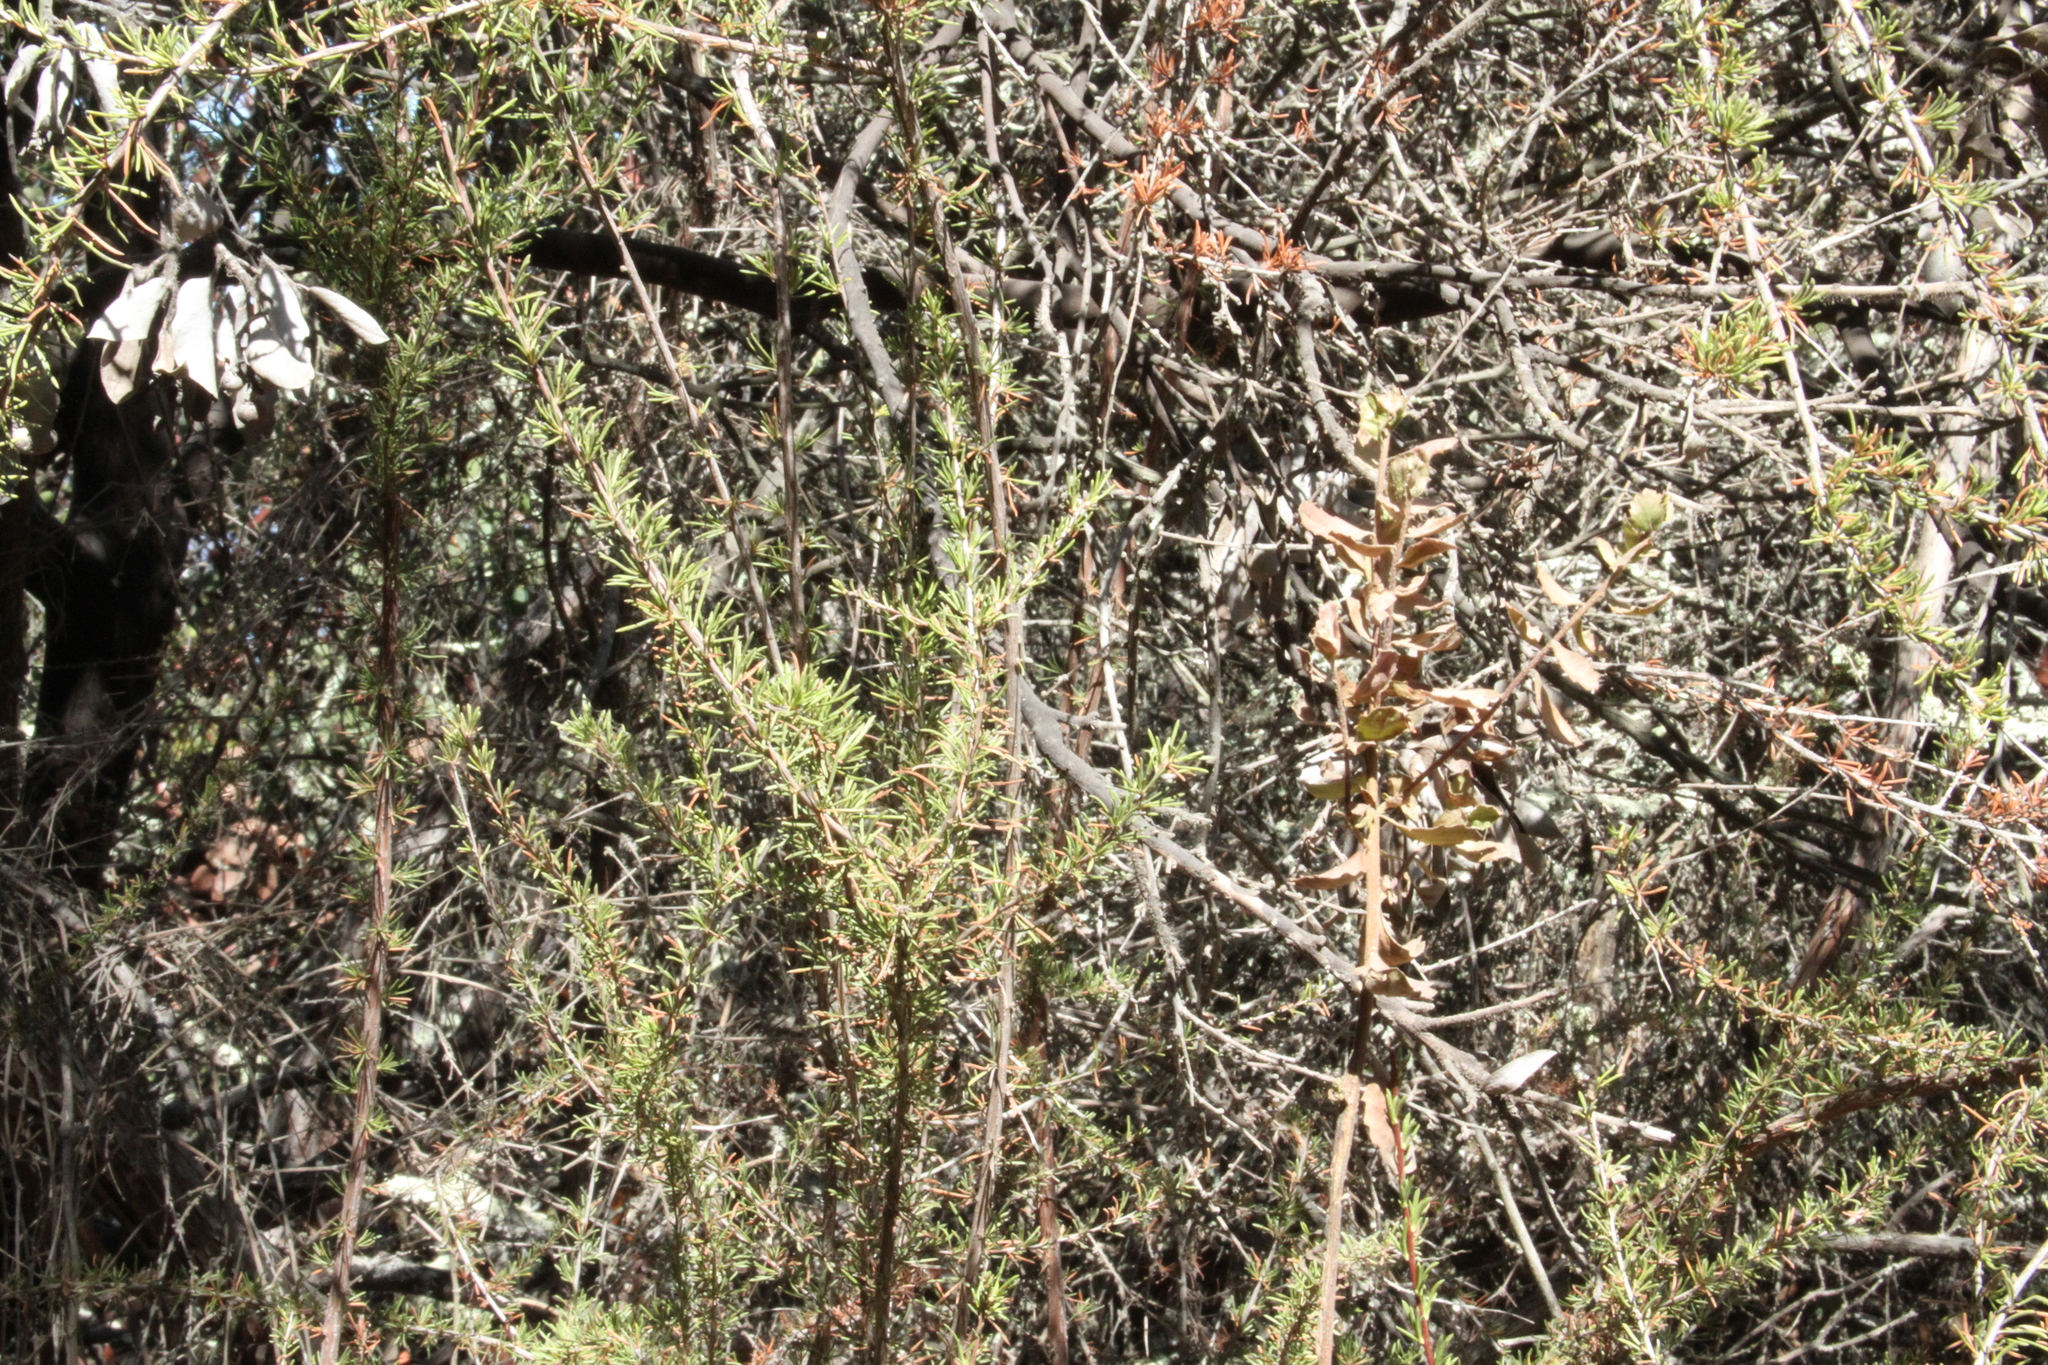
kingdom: Plantae
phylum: Tracheophyta
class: Magnoliopsida
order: Rosales
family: Rosaceae
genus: Adenostoma
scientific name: Adenostoma fasciculatum
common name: Chamise
